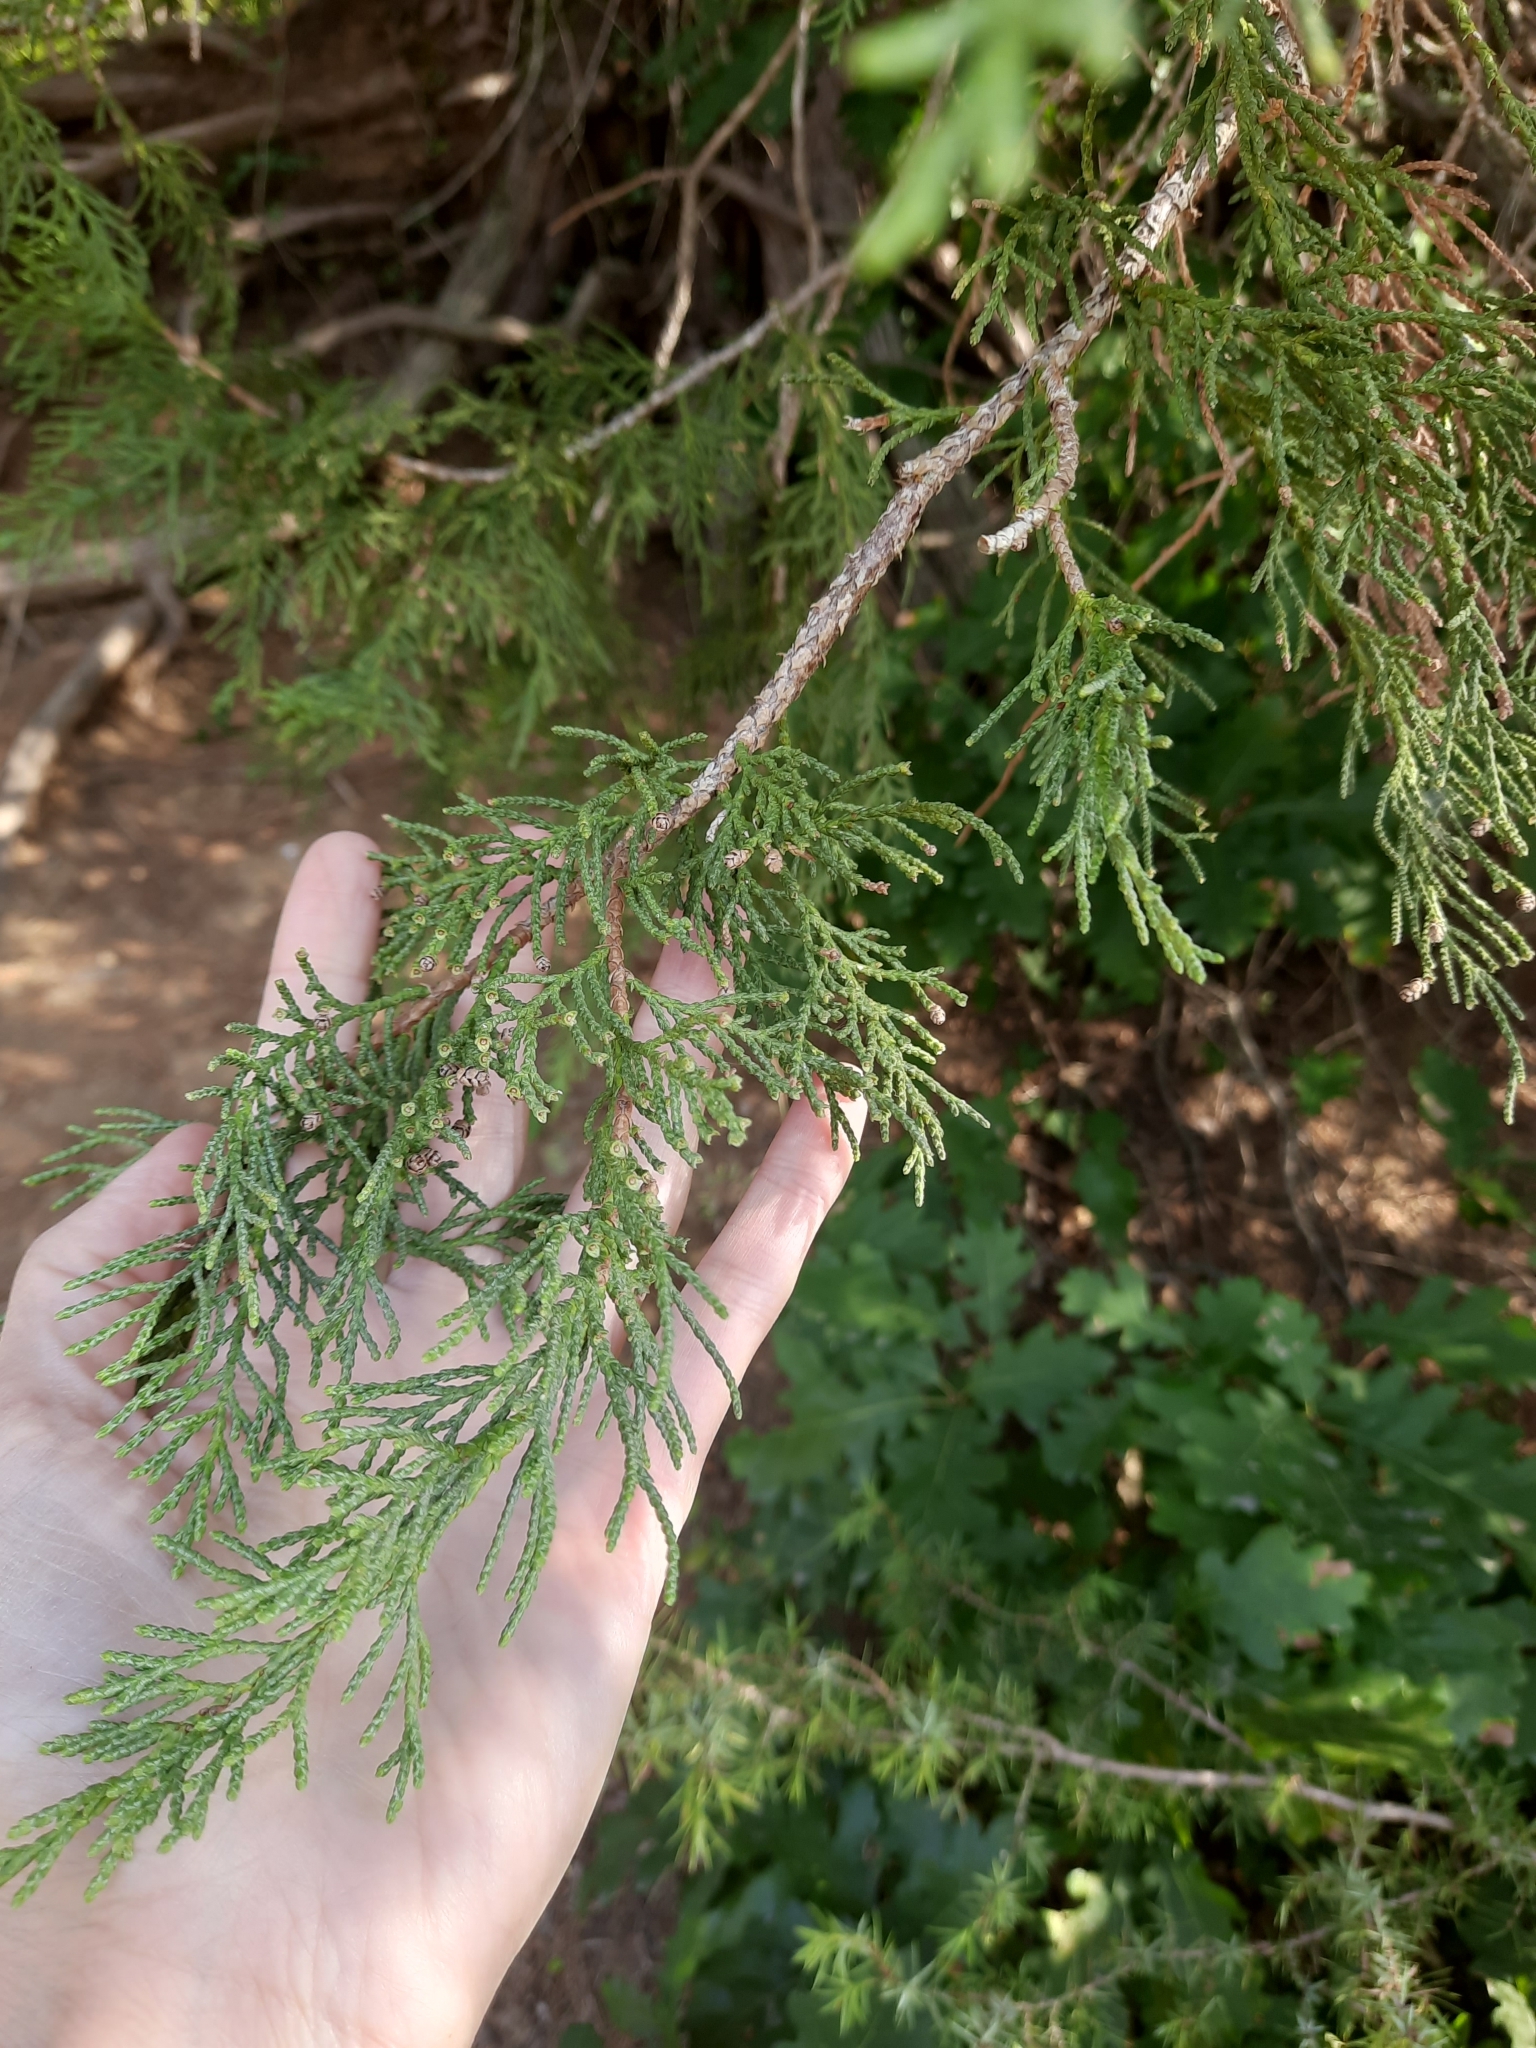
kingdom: Plantae
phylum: Tracheophyta
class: Pinopsida
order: Pinales
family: Cupressaceae
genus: Juniperus
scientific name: Juniperus excelsa
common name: Crimean juniper
